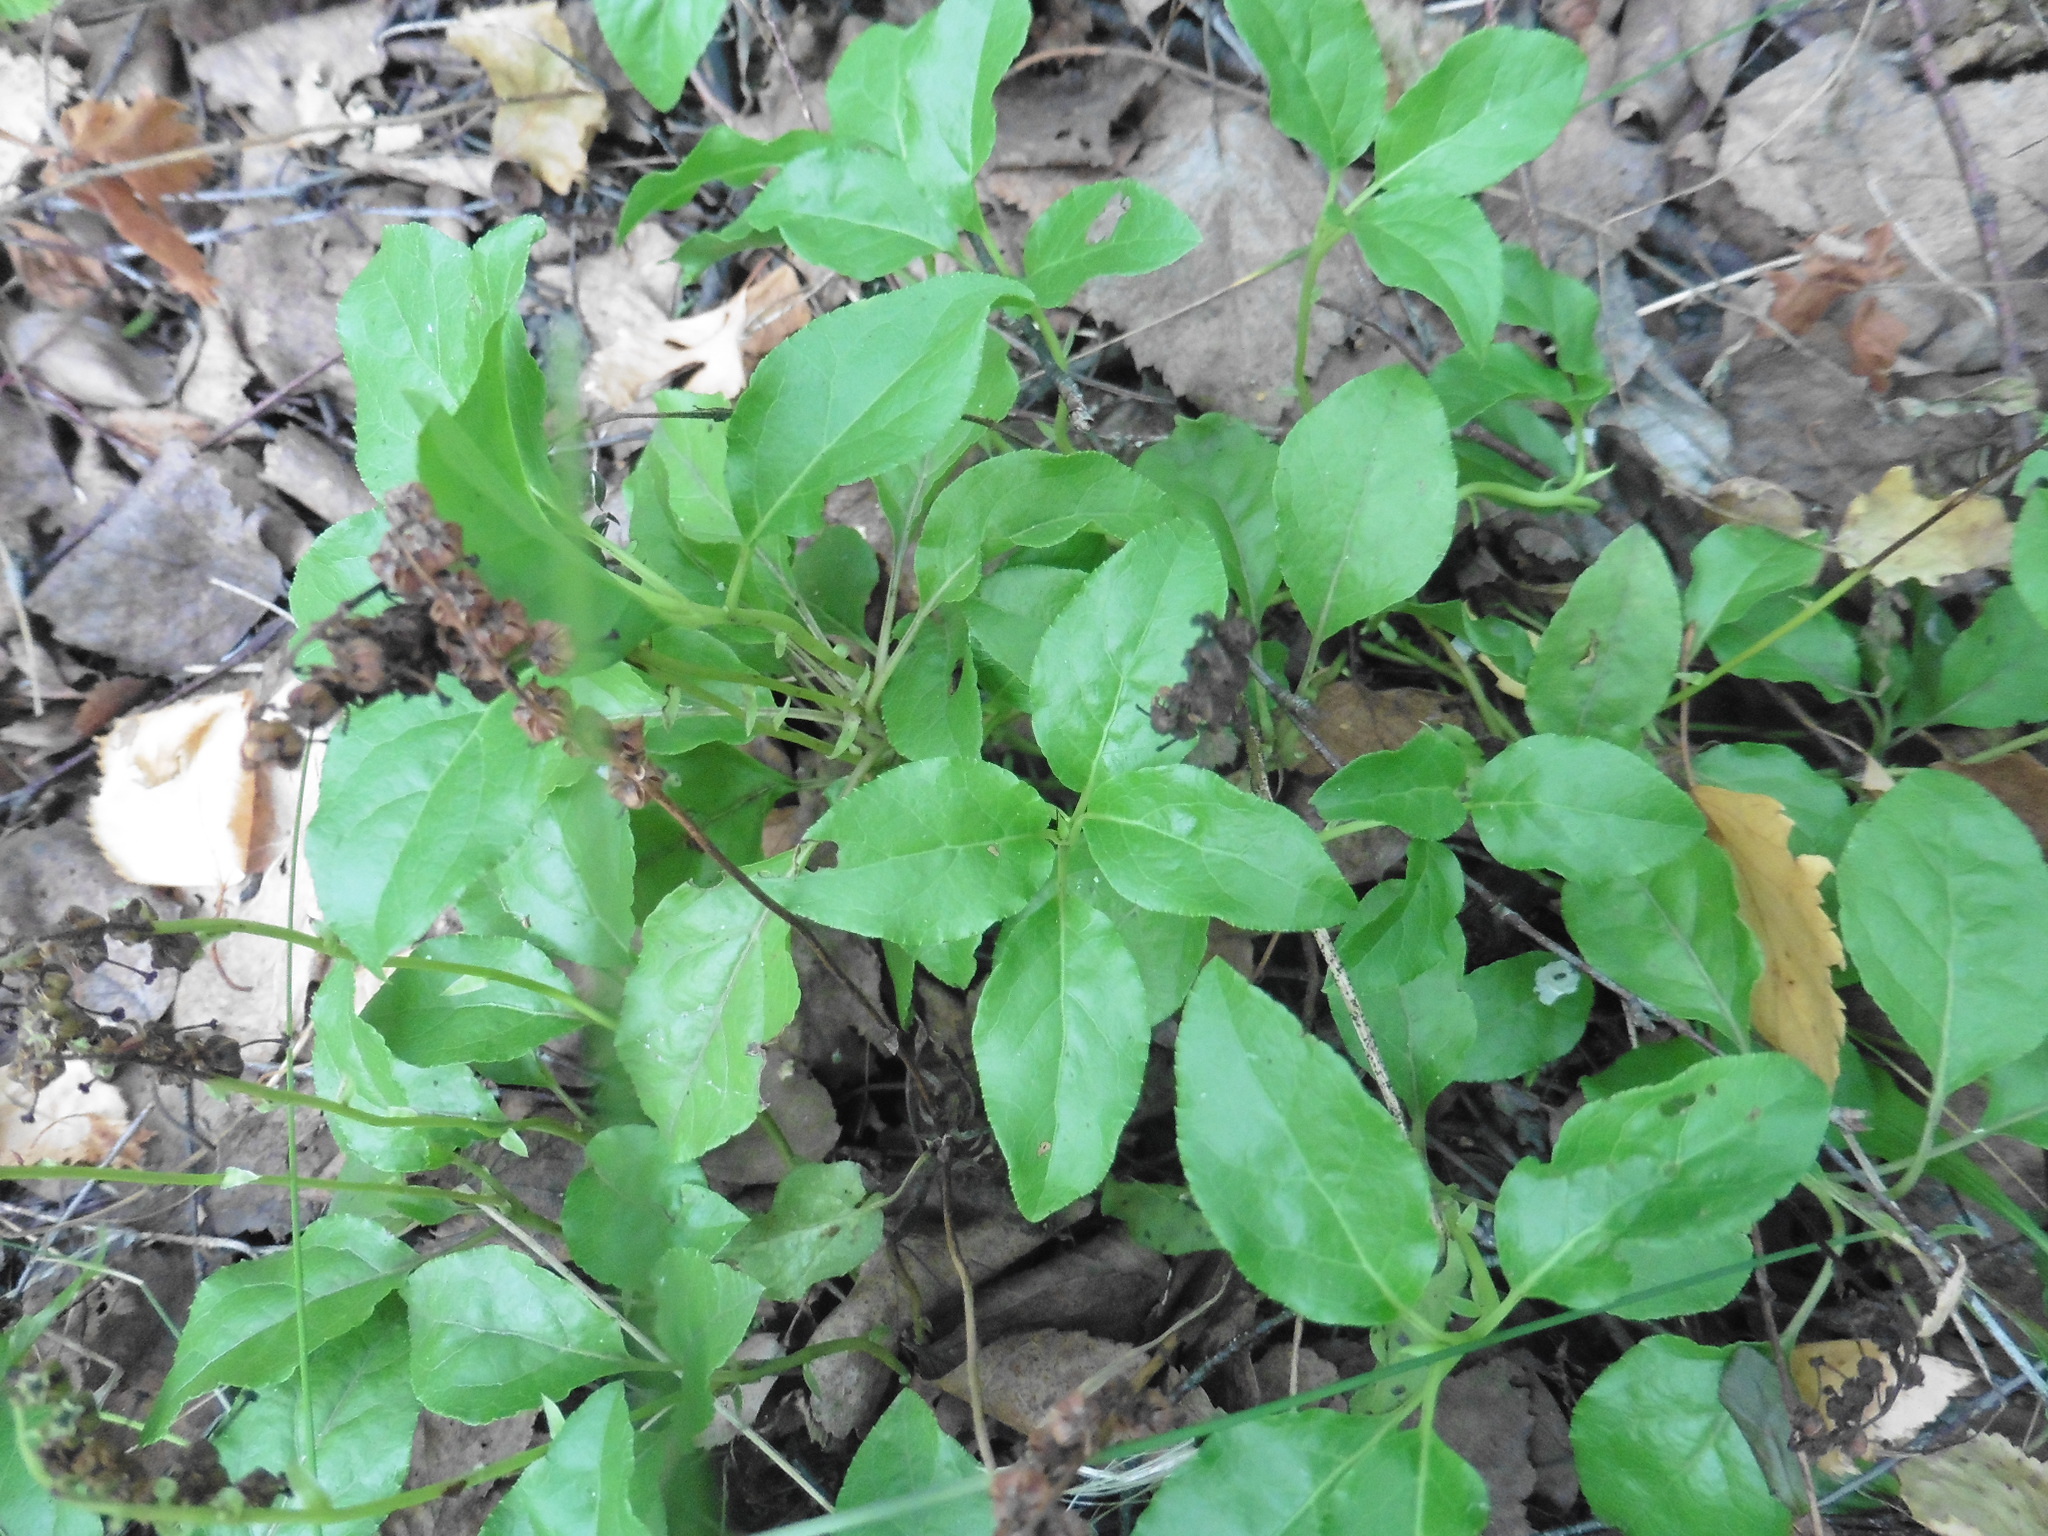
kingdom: Plantae
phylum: Tracheophyta
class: Magnoliopsida
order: Ericales
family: Ericaceae
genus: Orthilia
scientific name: Orthilia secunda
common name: One-sided orthilia
